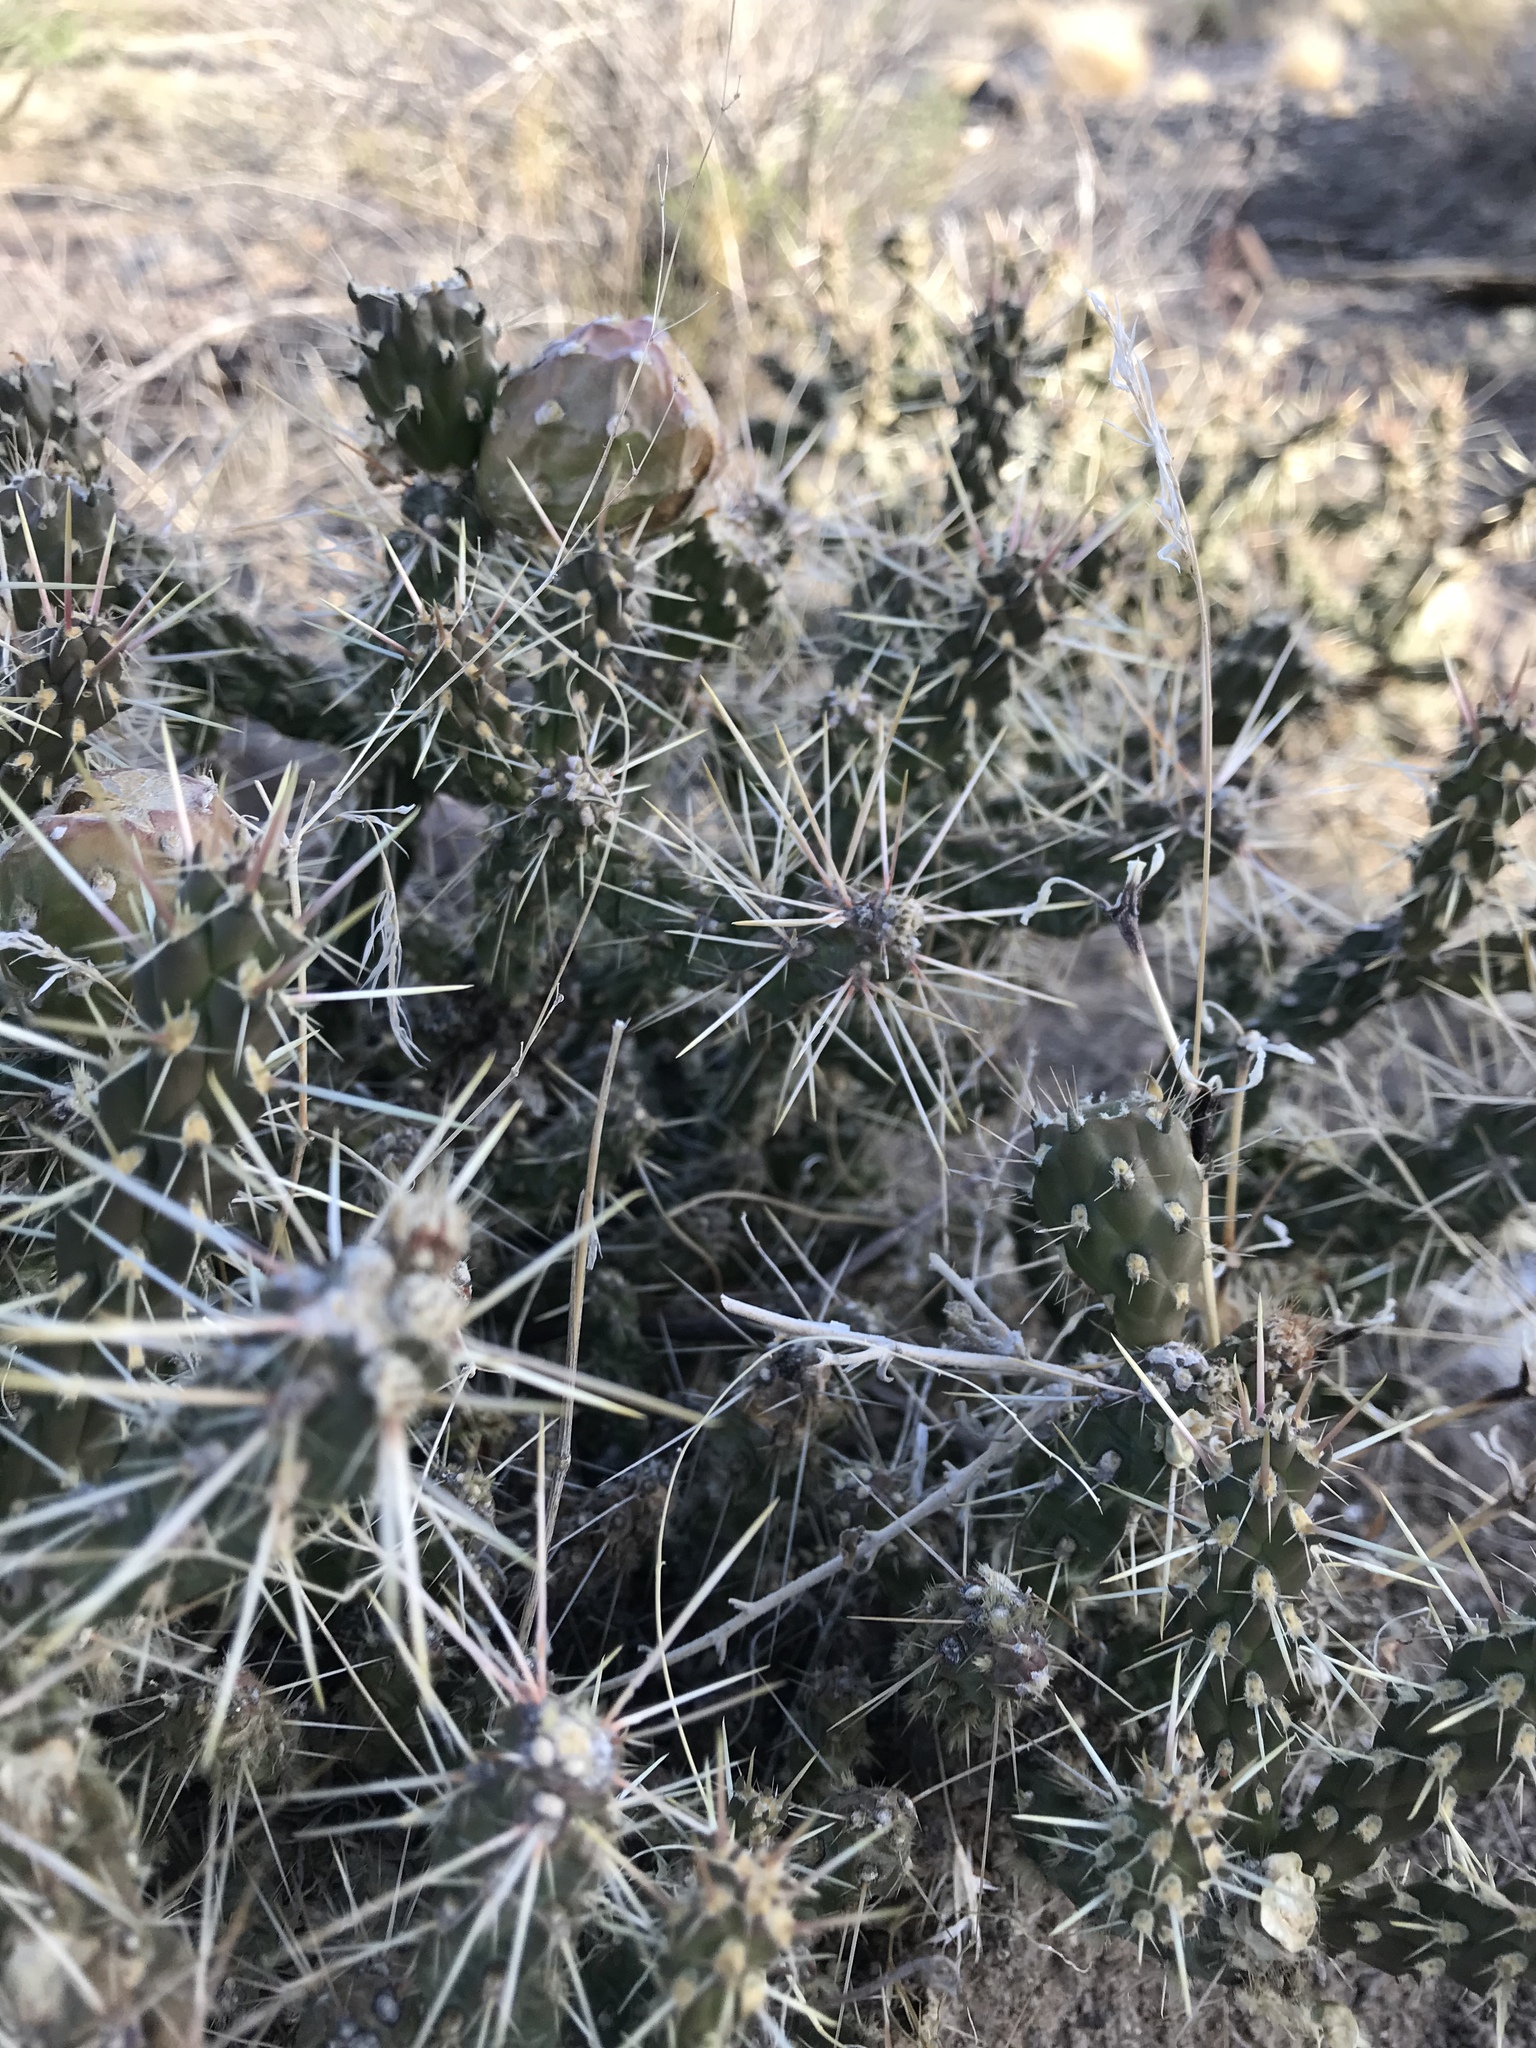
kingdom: Plantae
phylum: Tracheophyta
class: Magnoliopsida
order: Caryophyllales
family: Cactaceae
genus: Cylindropuntia
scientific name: Cylindropuntia whipplei
